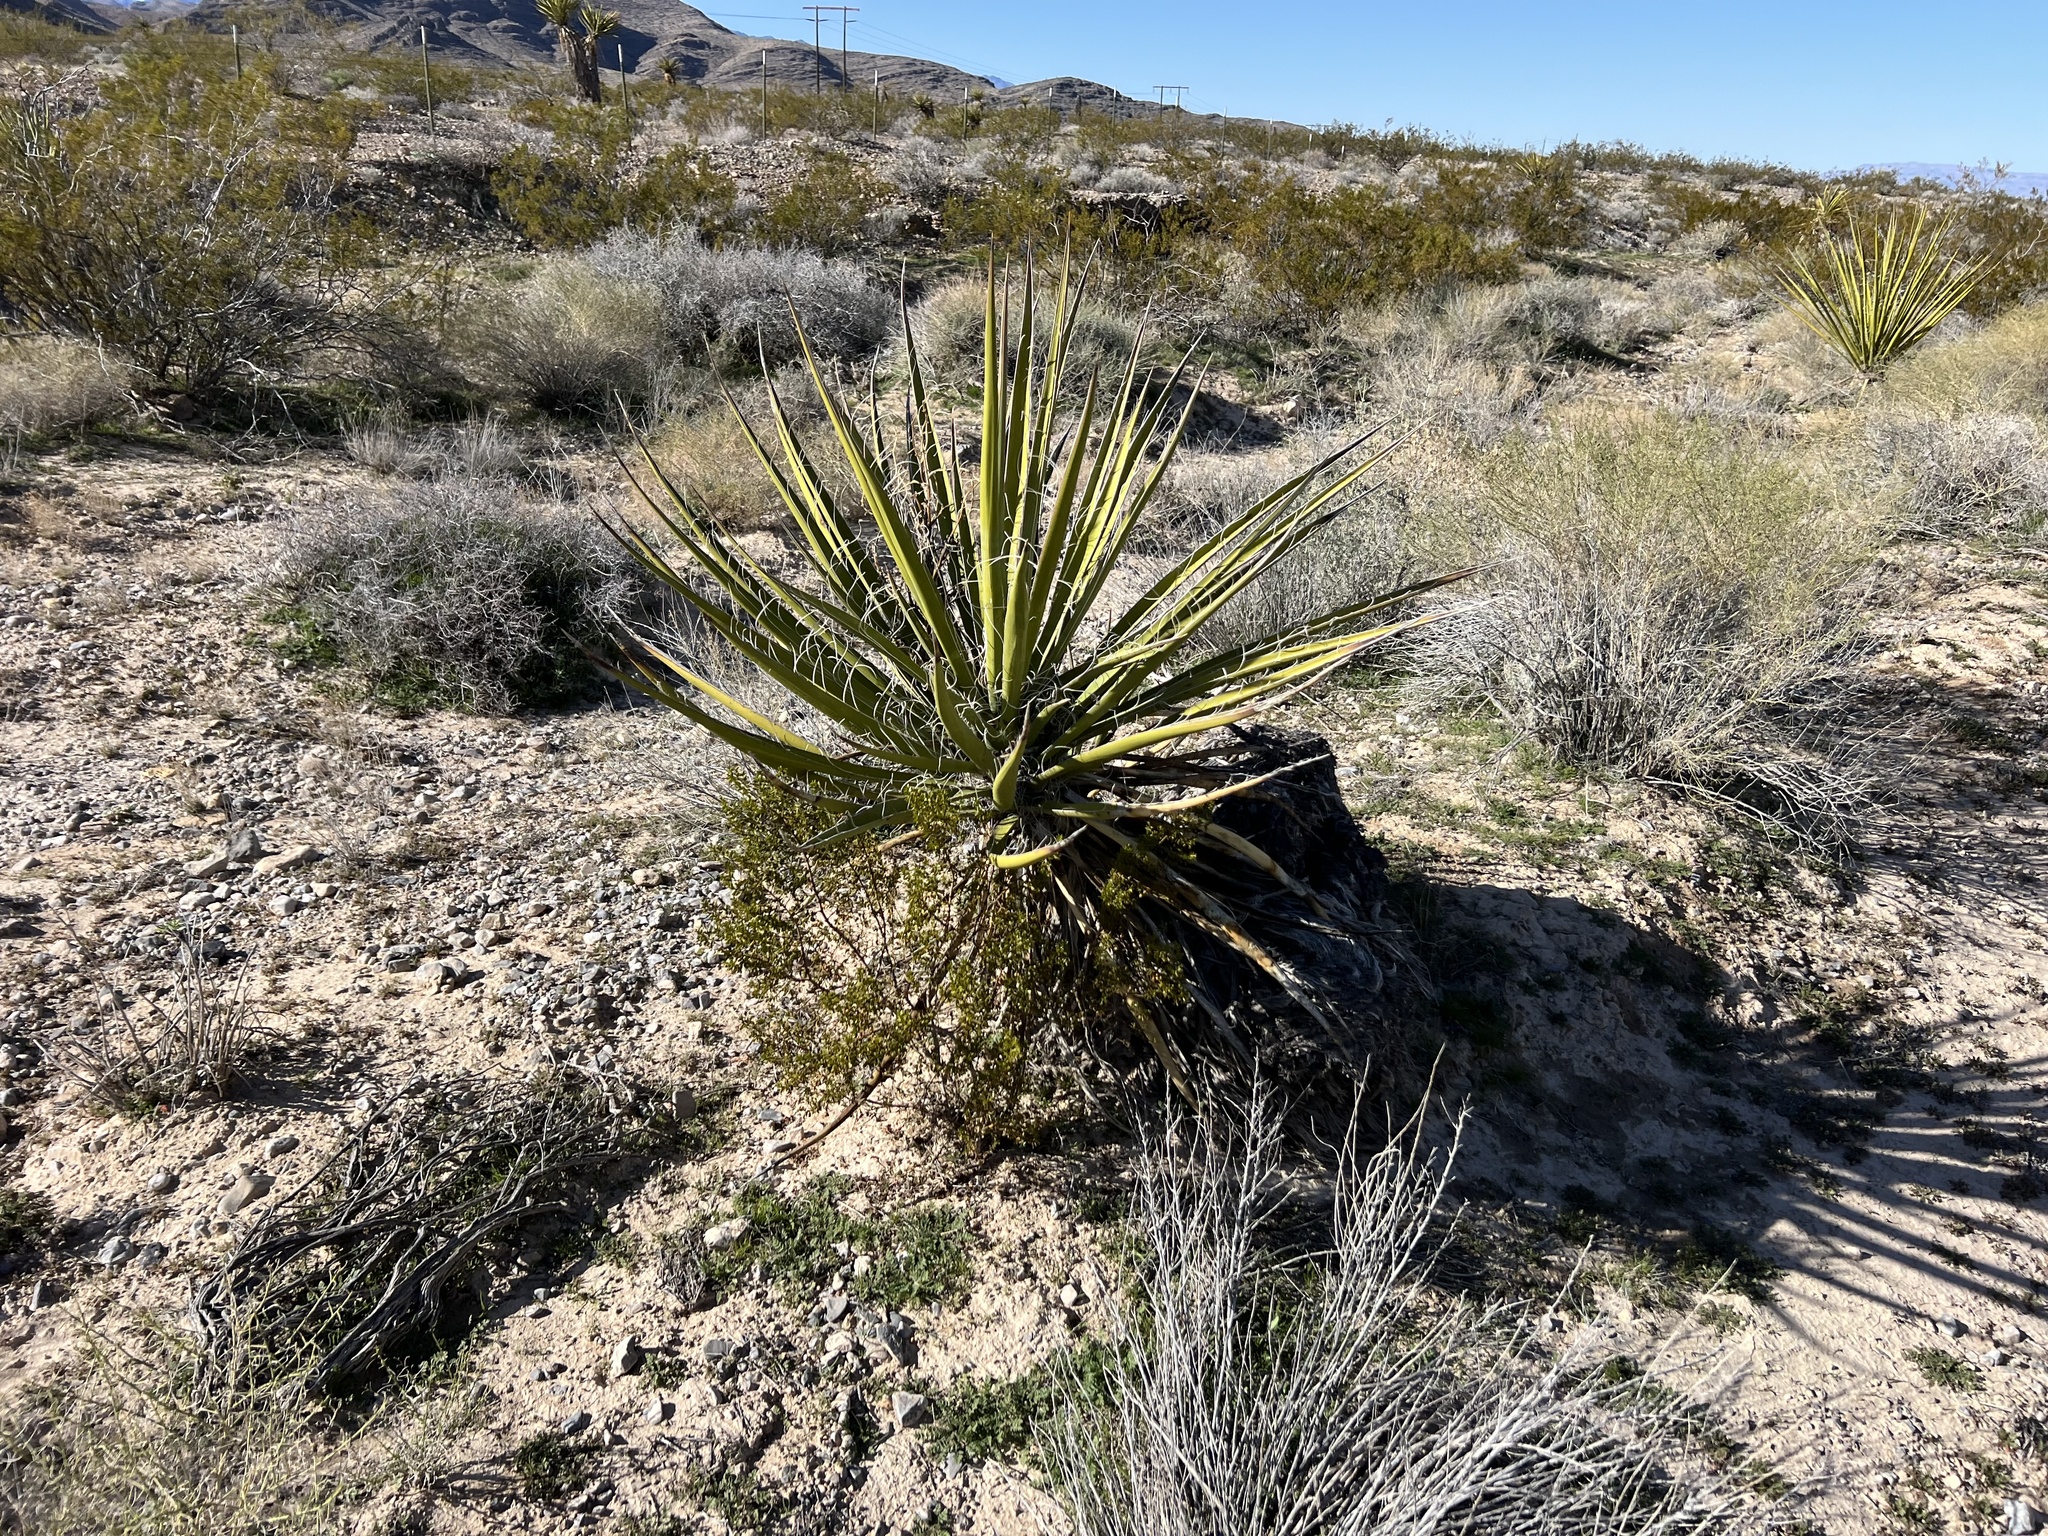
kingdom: Plantae
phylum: Tracheophyta
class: Liliopsida
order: Asparagales
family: Asparagaceae
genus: Yucca
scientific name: Yucca schidigera
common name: Mojave yucca
